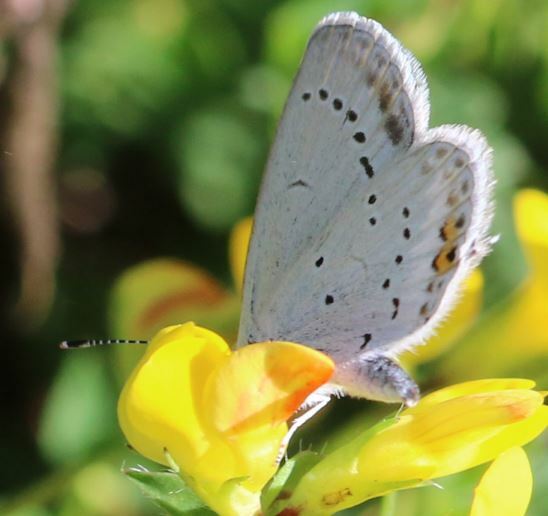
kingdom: Animalia
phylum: Arthropoda
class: Insecta
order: Lepidoptera
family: Lycaenidae
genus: Elkalyce
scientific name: Elkalyce argiades
